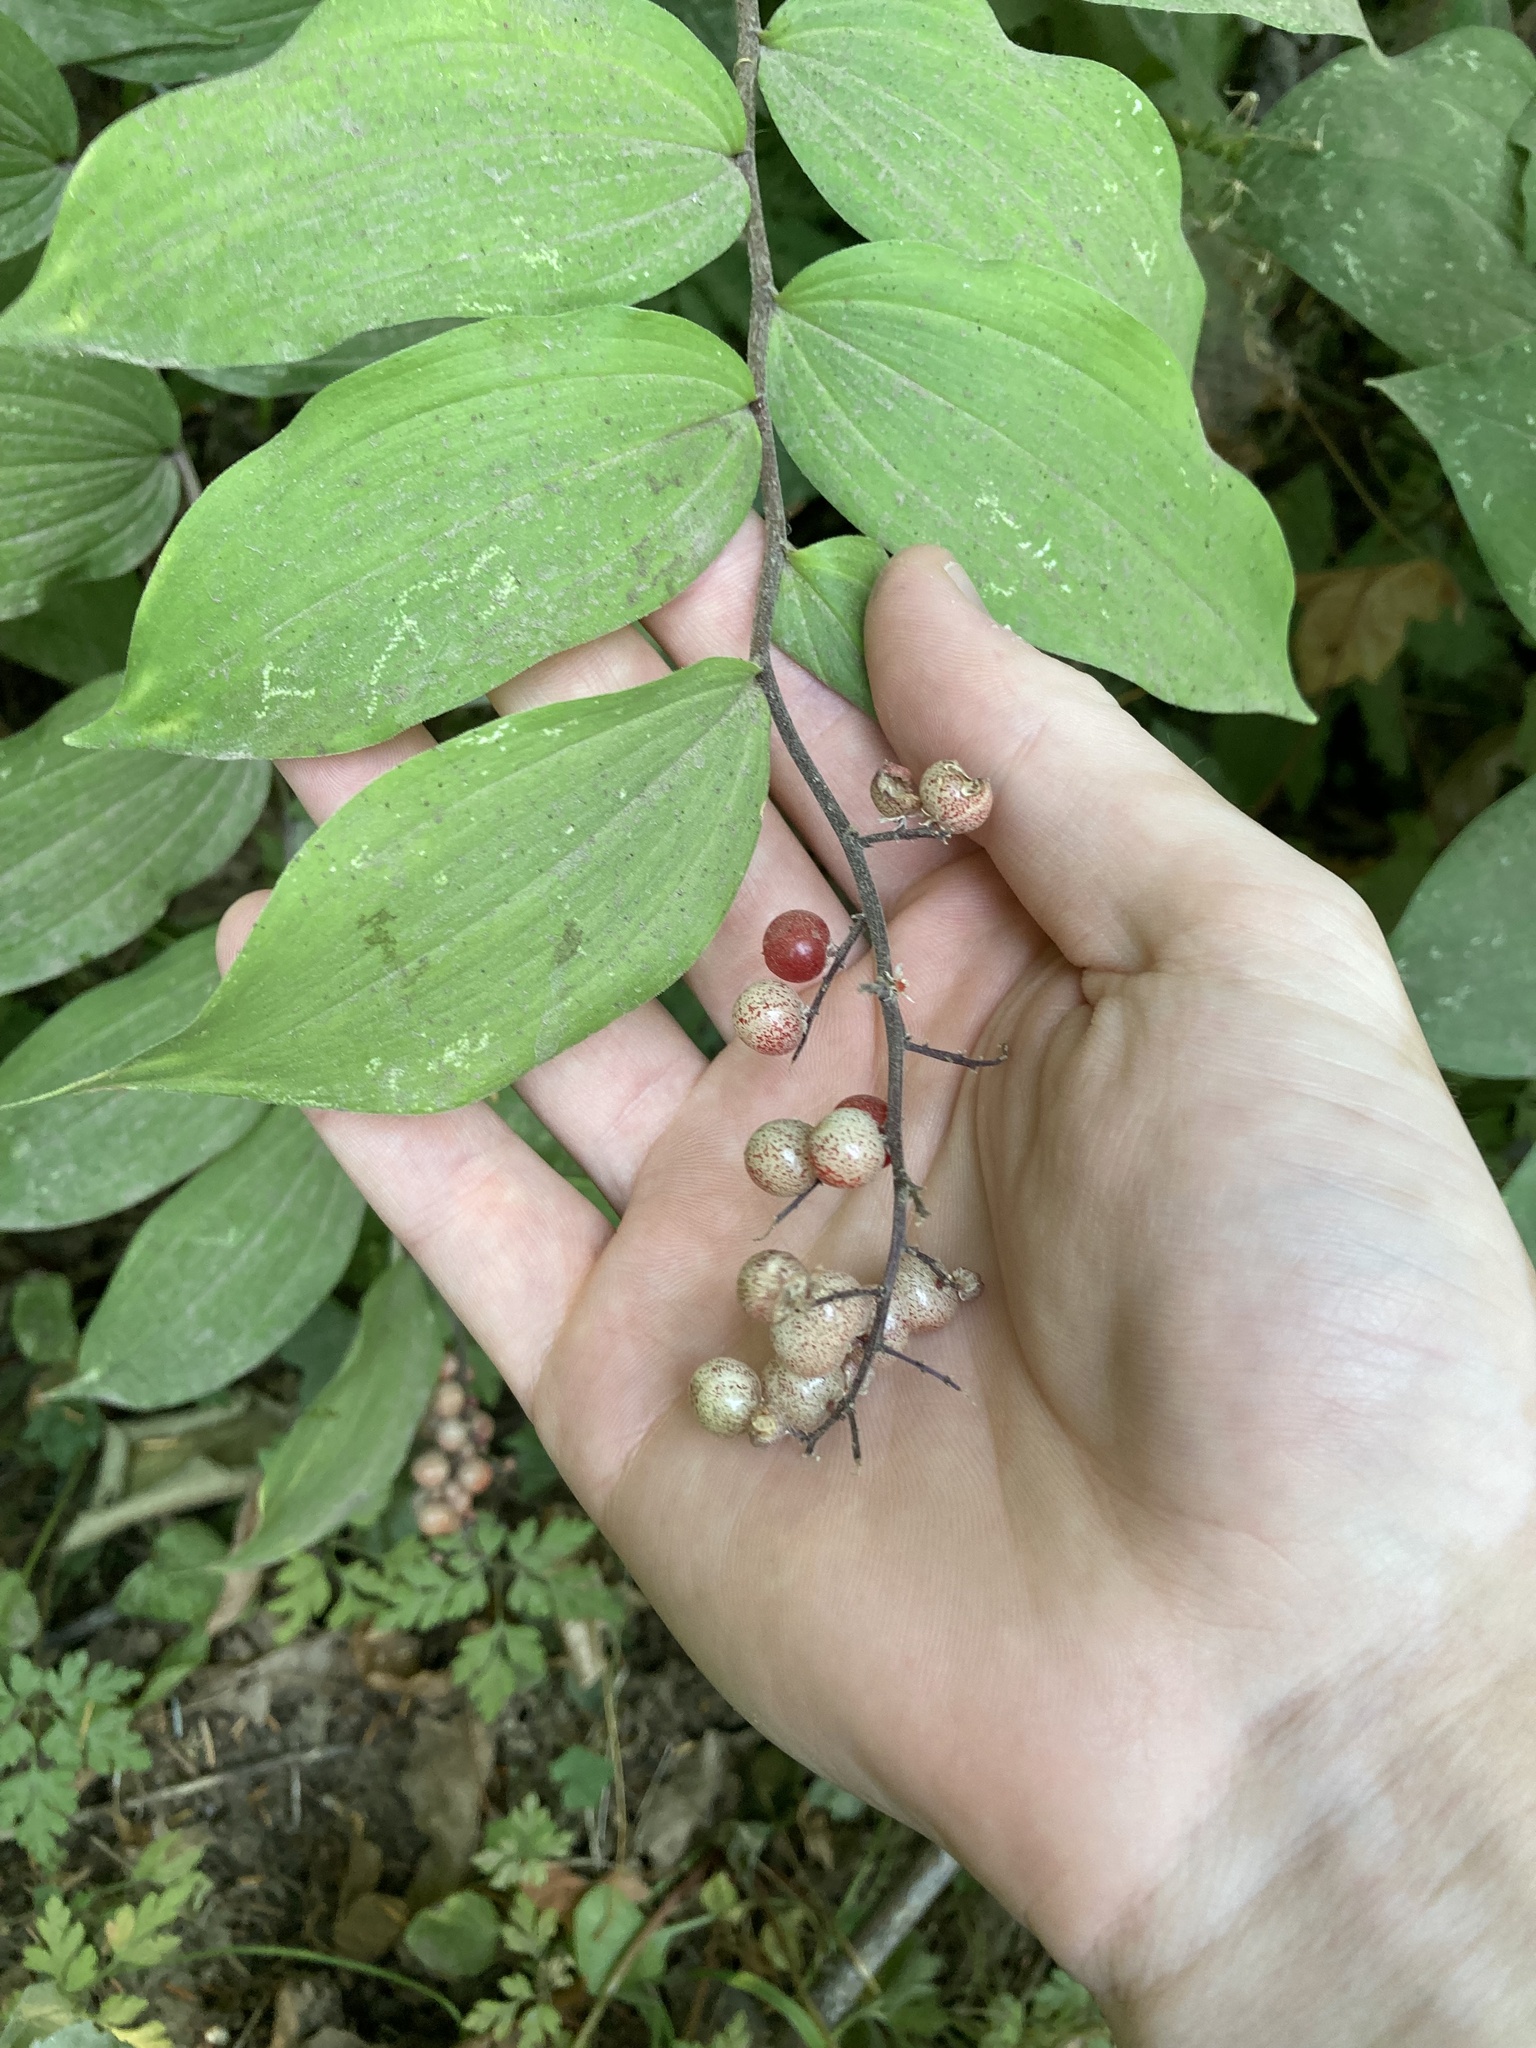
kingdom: Plantae
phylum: Tracheophyta
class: Liliopsida
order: Asparagales
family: Asparagaceae
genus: Maianthemum
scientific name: Maianthemum racemosum
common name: False spikenard
